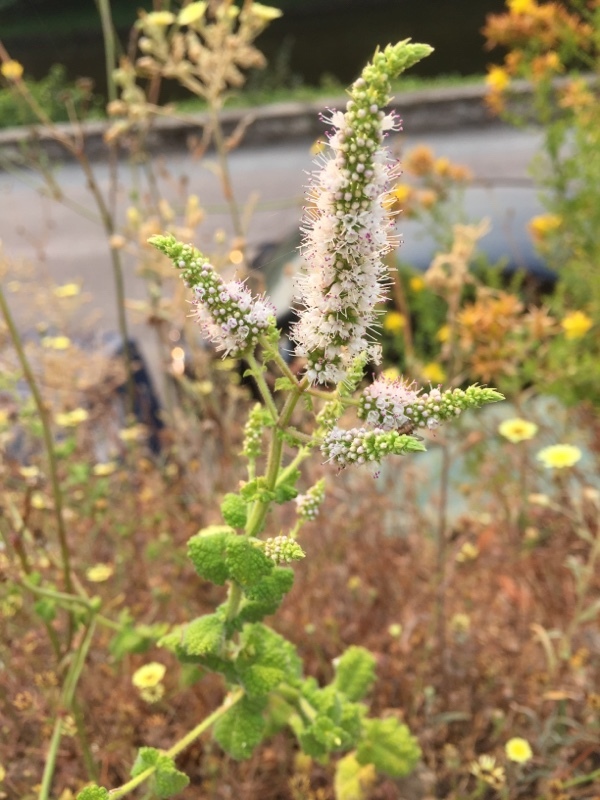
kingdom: Plantae
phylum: Tracheophyta
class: Magnoliopsida
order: Lamiales
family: Lamiaceae
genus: Mentha
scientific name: Mentha suaveolens
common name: Apple mint
